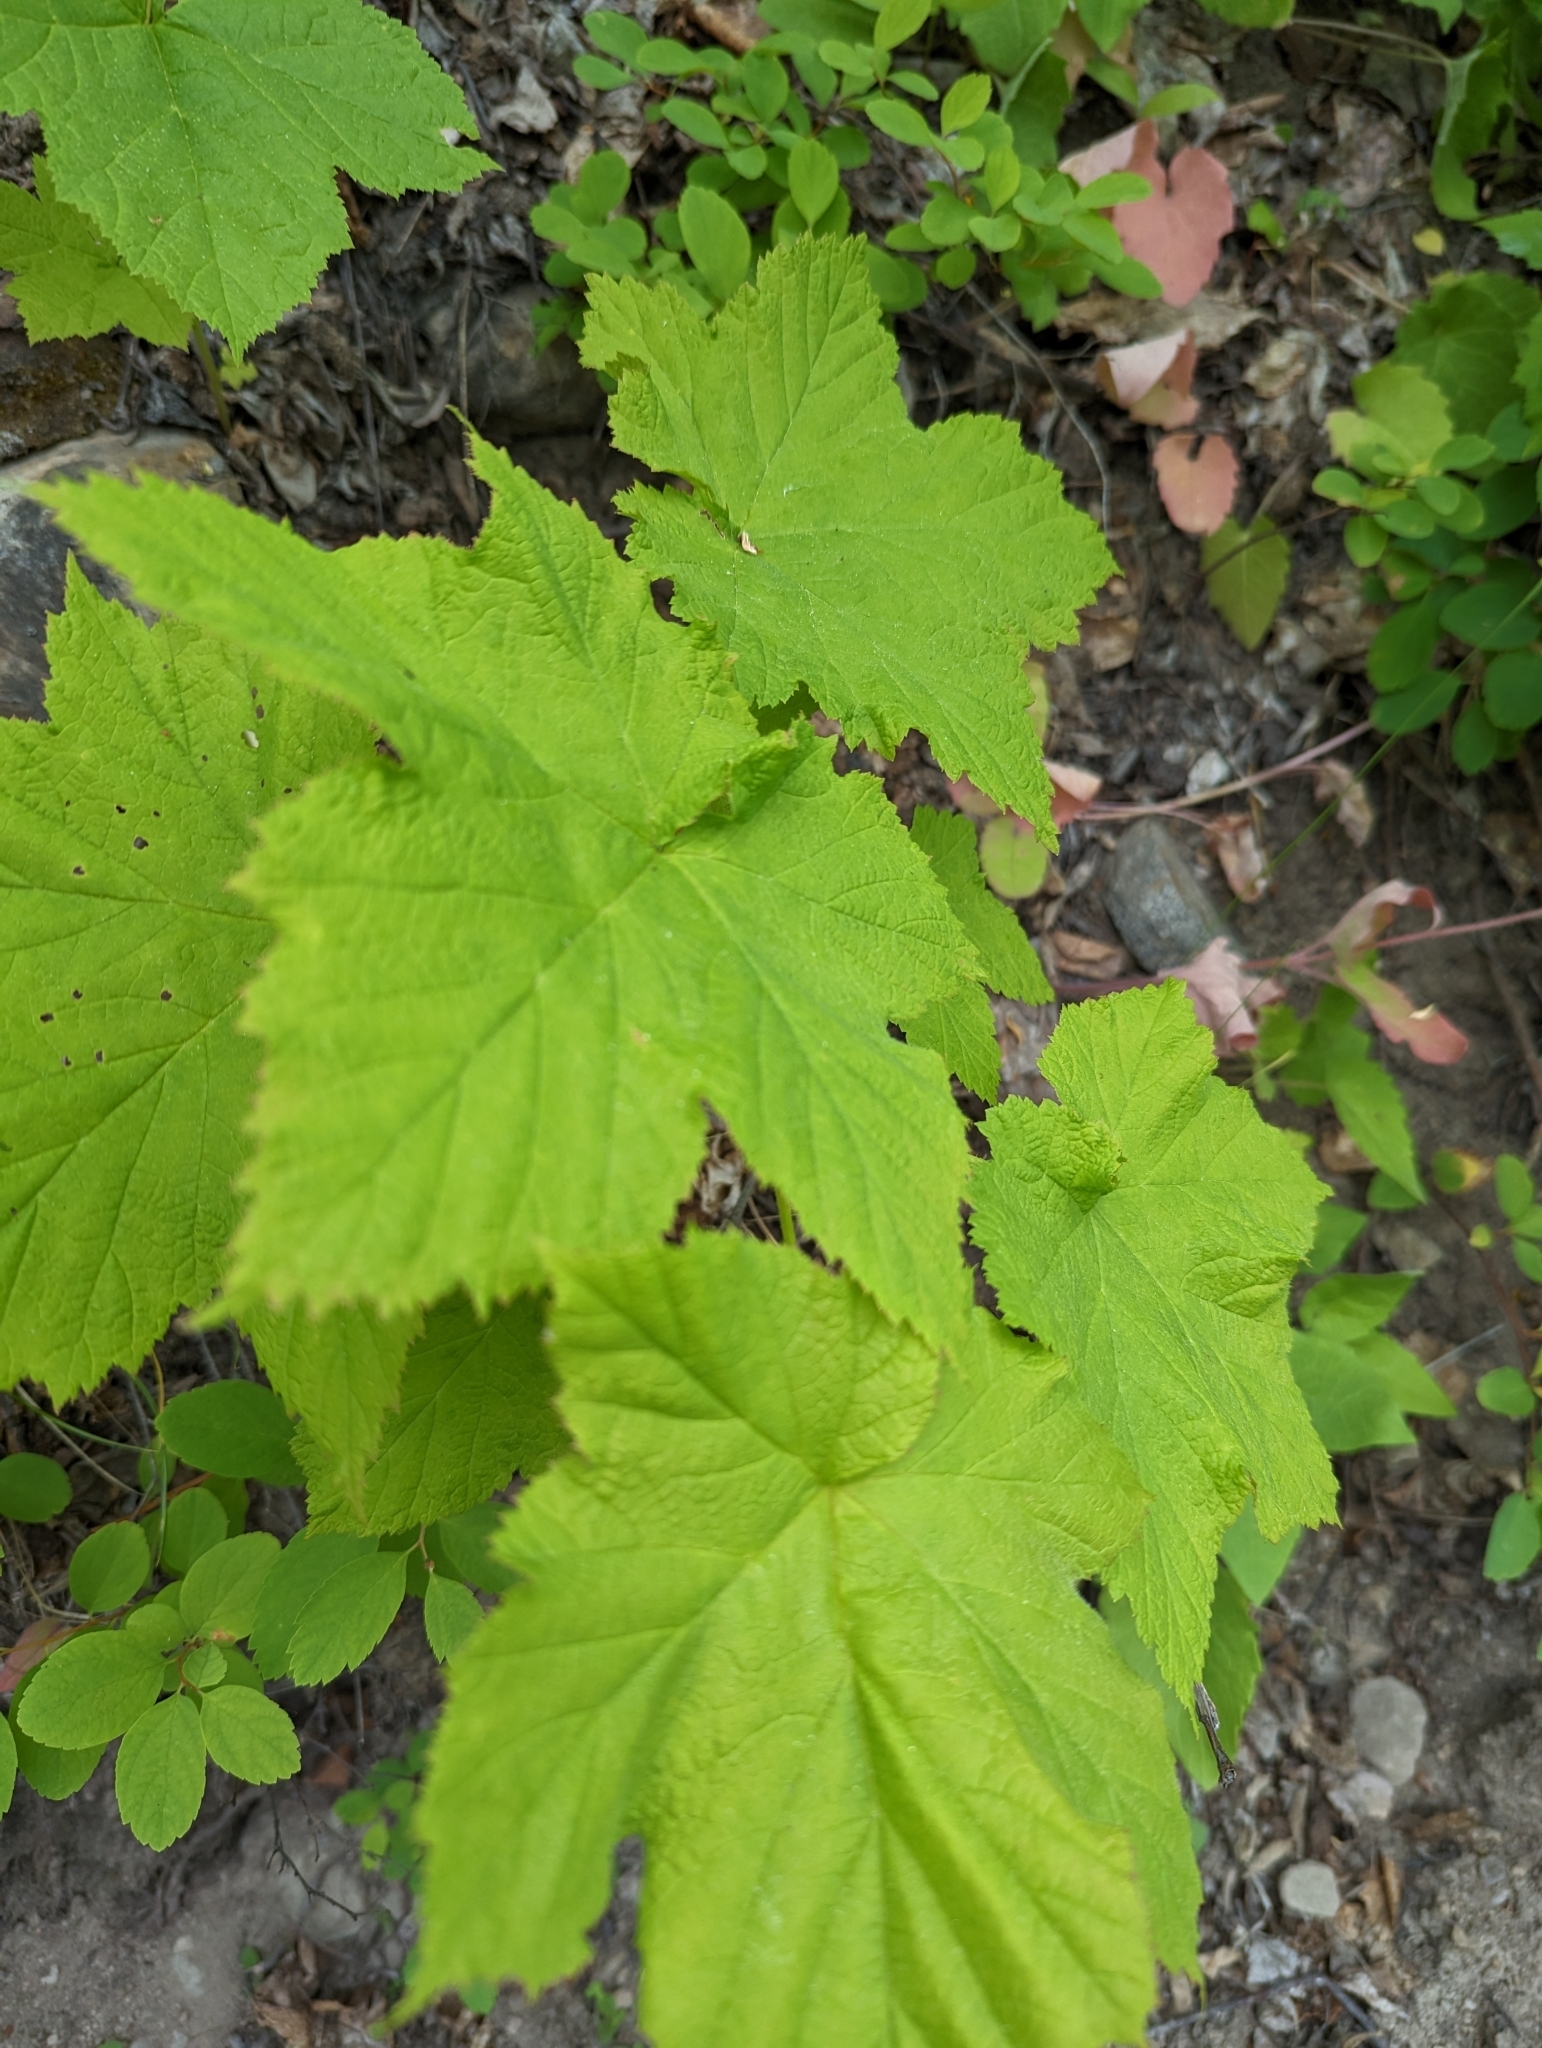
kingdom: Plantae
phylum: Tracheophyta
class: Magnoliopsida
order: Rosales
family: Rosaceae
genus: Rubus
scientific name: Rubus parviflorus
